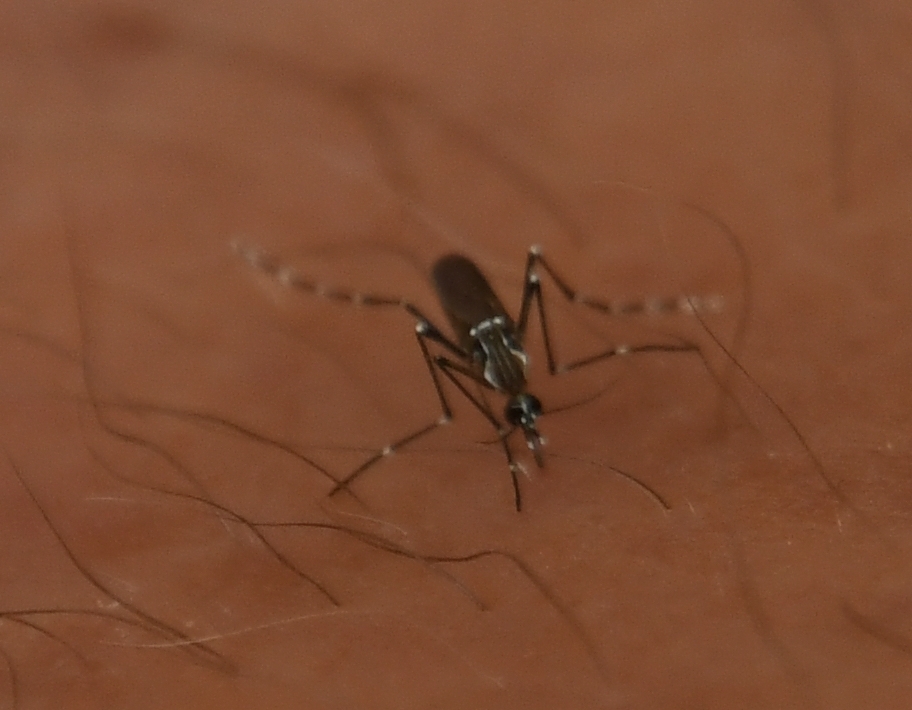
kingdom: Animalia
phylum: Arthropoda
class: Insecta
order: Diptera
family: Culicidae
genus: Aedes
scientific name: Aedes aegypti
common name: Yellow fever mosquito
